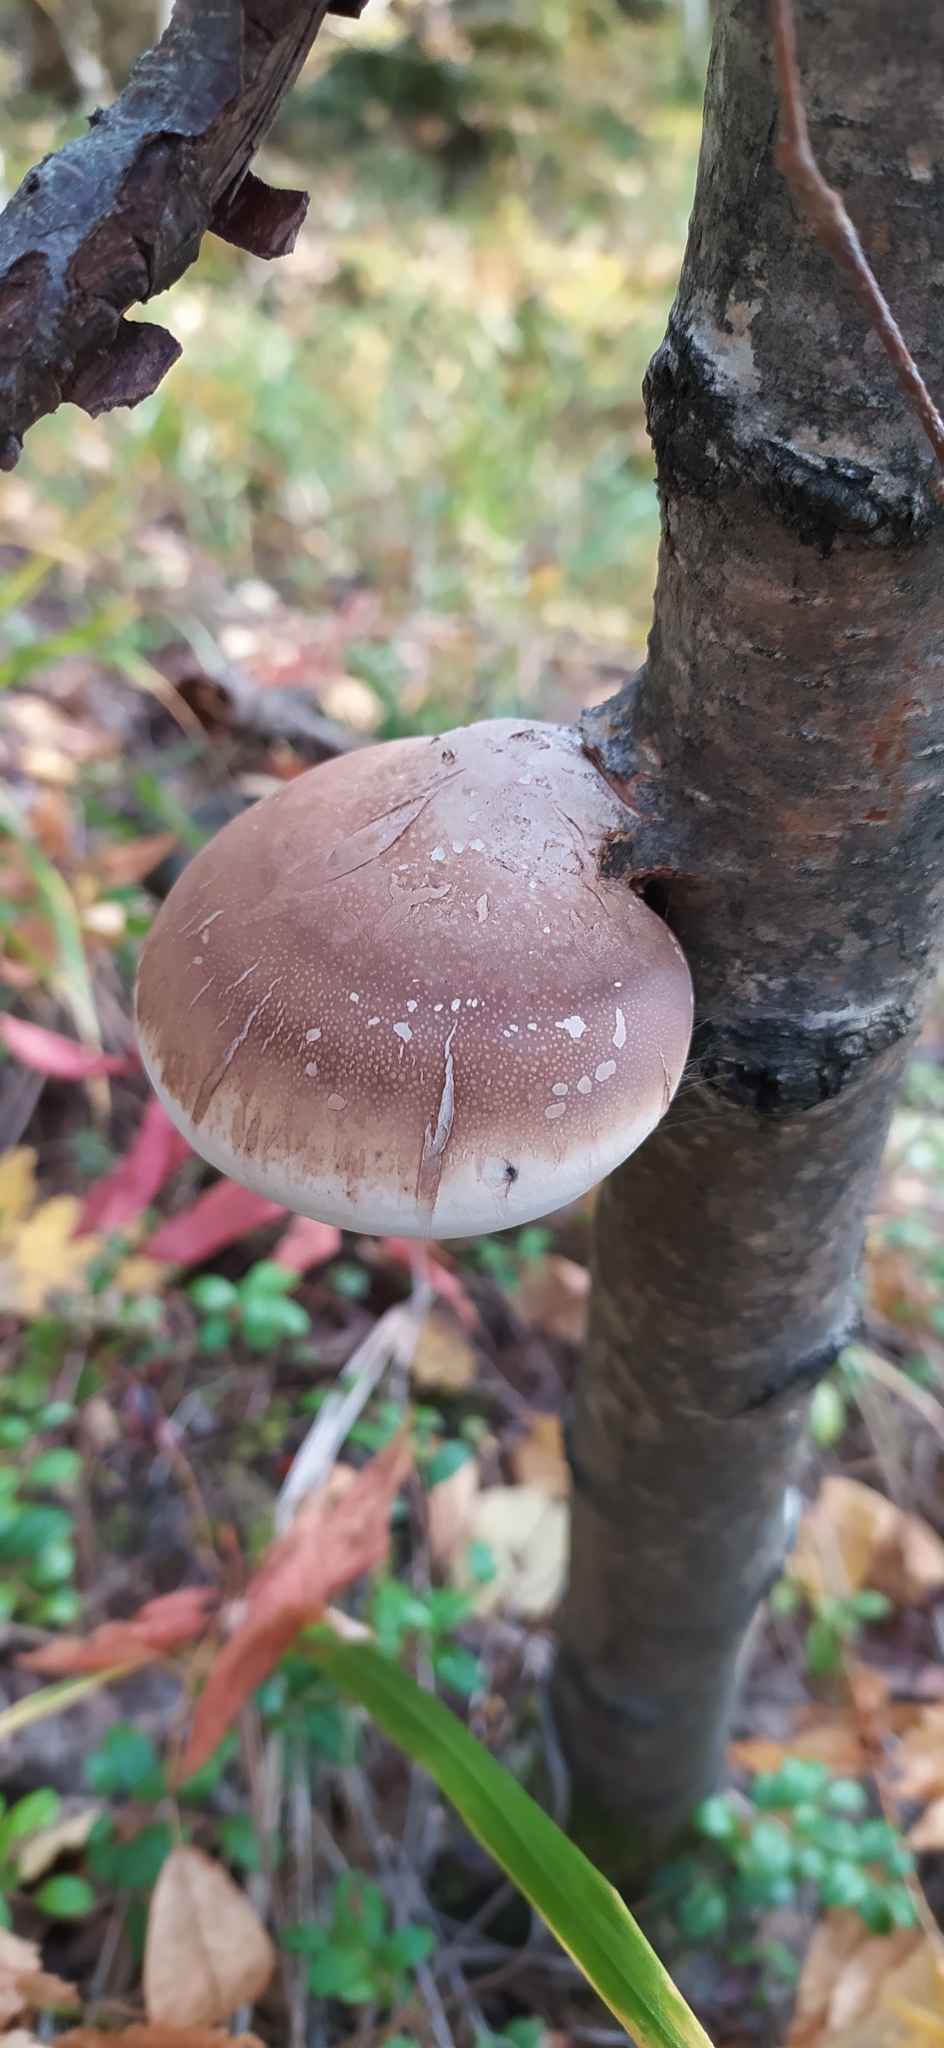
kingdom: Fungi
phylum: Basidiomycota
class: Agaricomycetes
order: Polyporales
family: Fomitopsidaceae
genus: Fomitopsis
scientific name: Fomitopsis betulina
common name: Birch polypore
